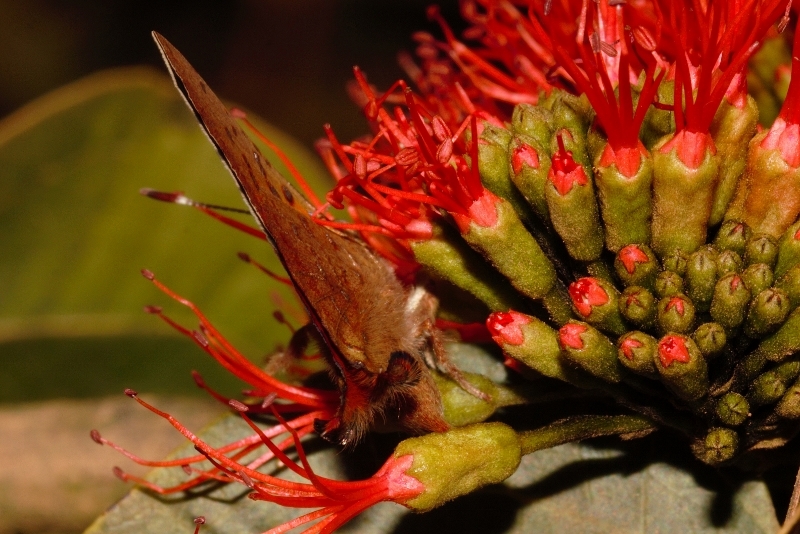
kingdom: Animalia
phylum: Arthropoda
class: Insecta
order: Lepidoptera
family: Lycaenidae
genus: Axiocerses
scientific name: Axiocerses perion
